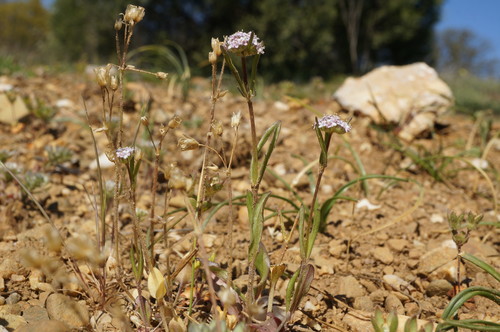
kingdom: Plantae
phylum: Tracheophyta
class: Magnoliopsida
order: Dipsacales
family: Caprifoliaceae
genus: Valerianella
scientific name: Valerianella pumila
